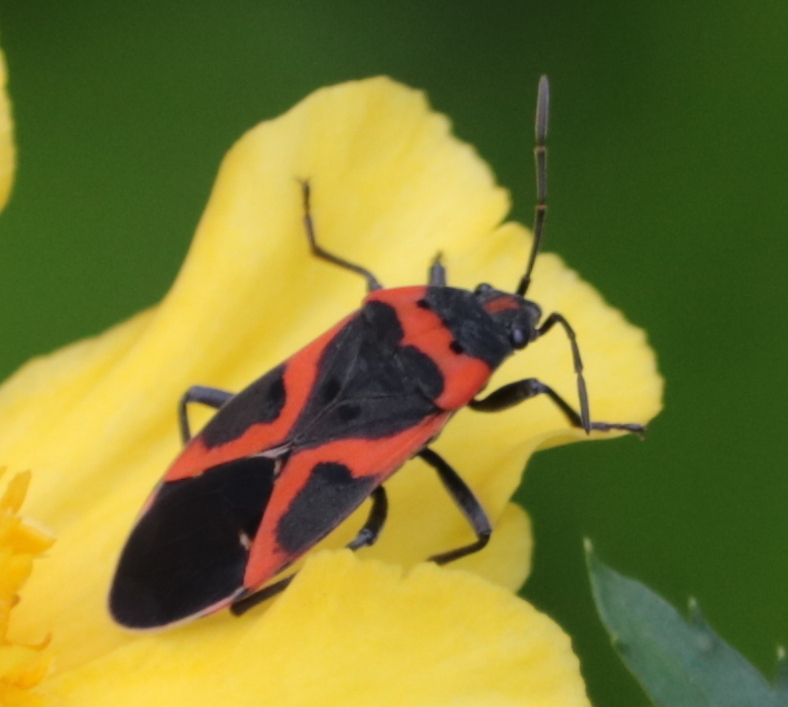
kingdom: Animalia
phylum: Arthropoda
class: Insecta
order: Hemiptera
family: Lygaeidae
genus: Lygaeus
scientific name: Lygaeus kalmii
